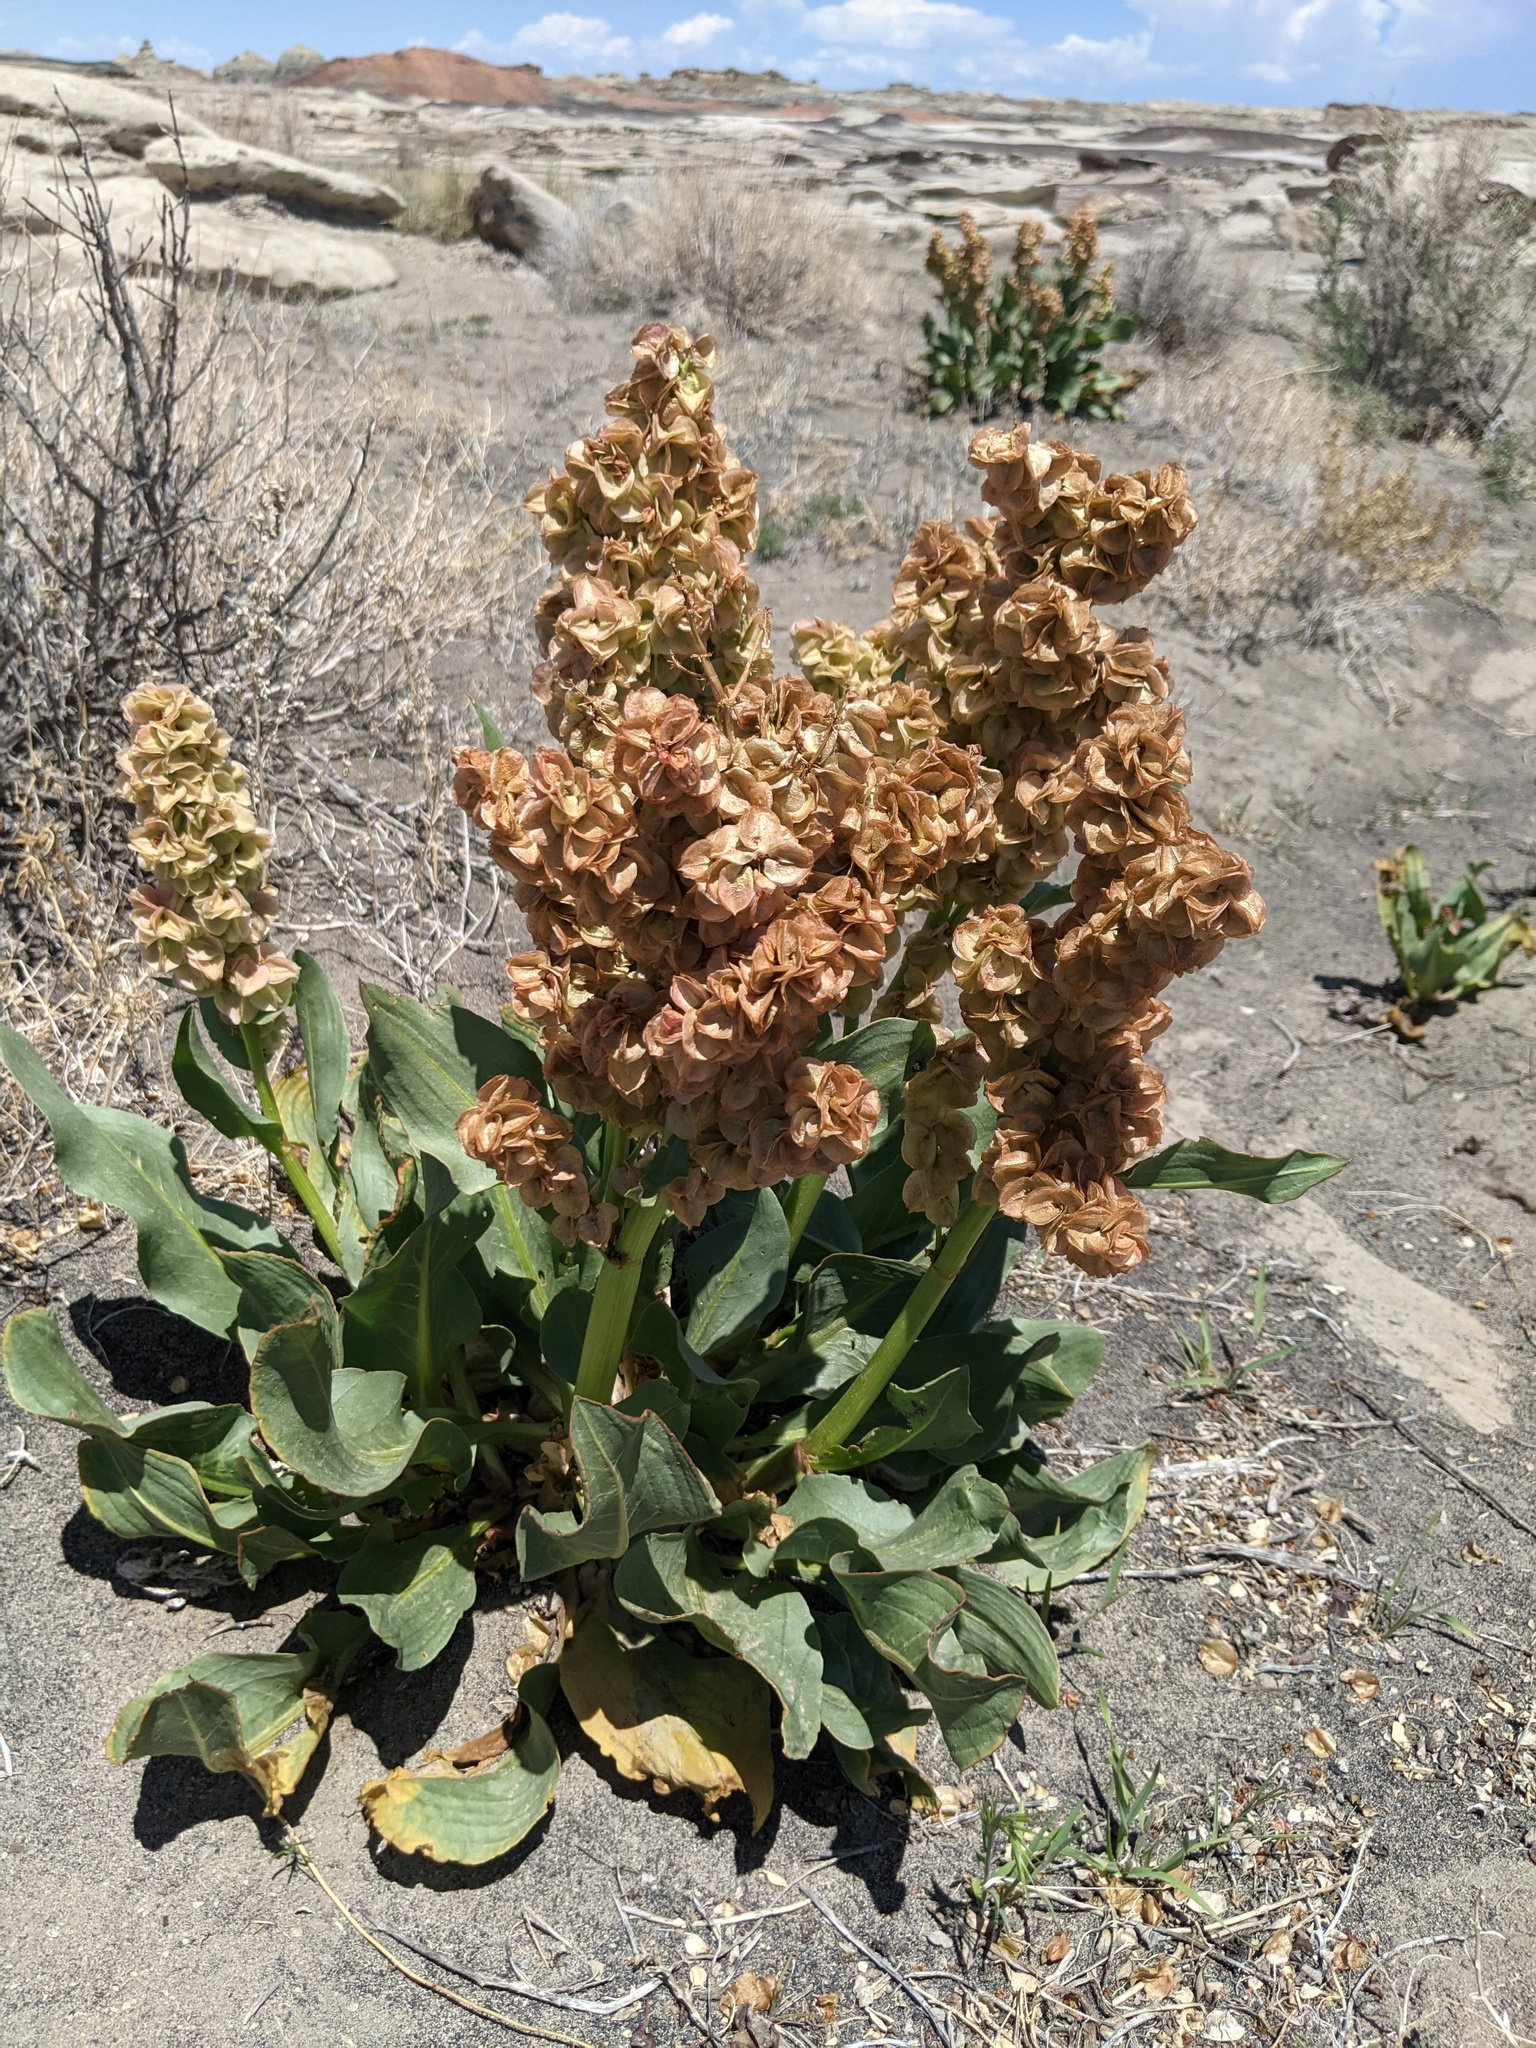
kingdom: Plantae
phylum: Tracheophyta
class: Magnoliopsida
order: Caryophyllales
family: Polygonaceae
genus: Rumex
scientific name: Rumex hymenosepalus
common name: Ganagra
